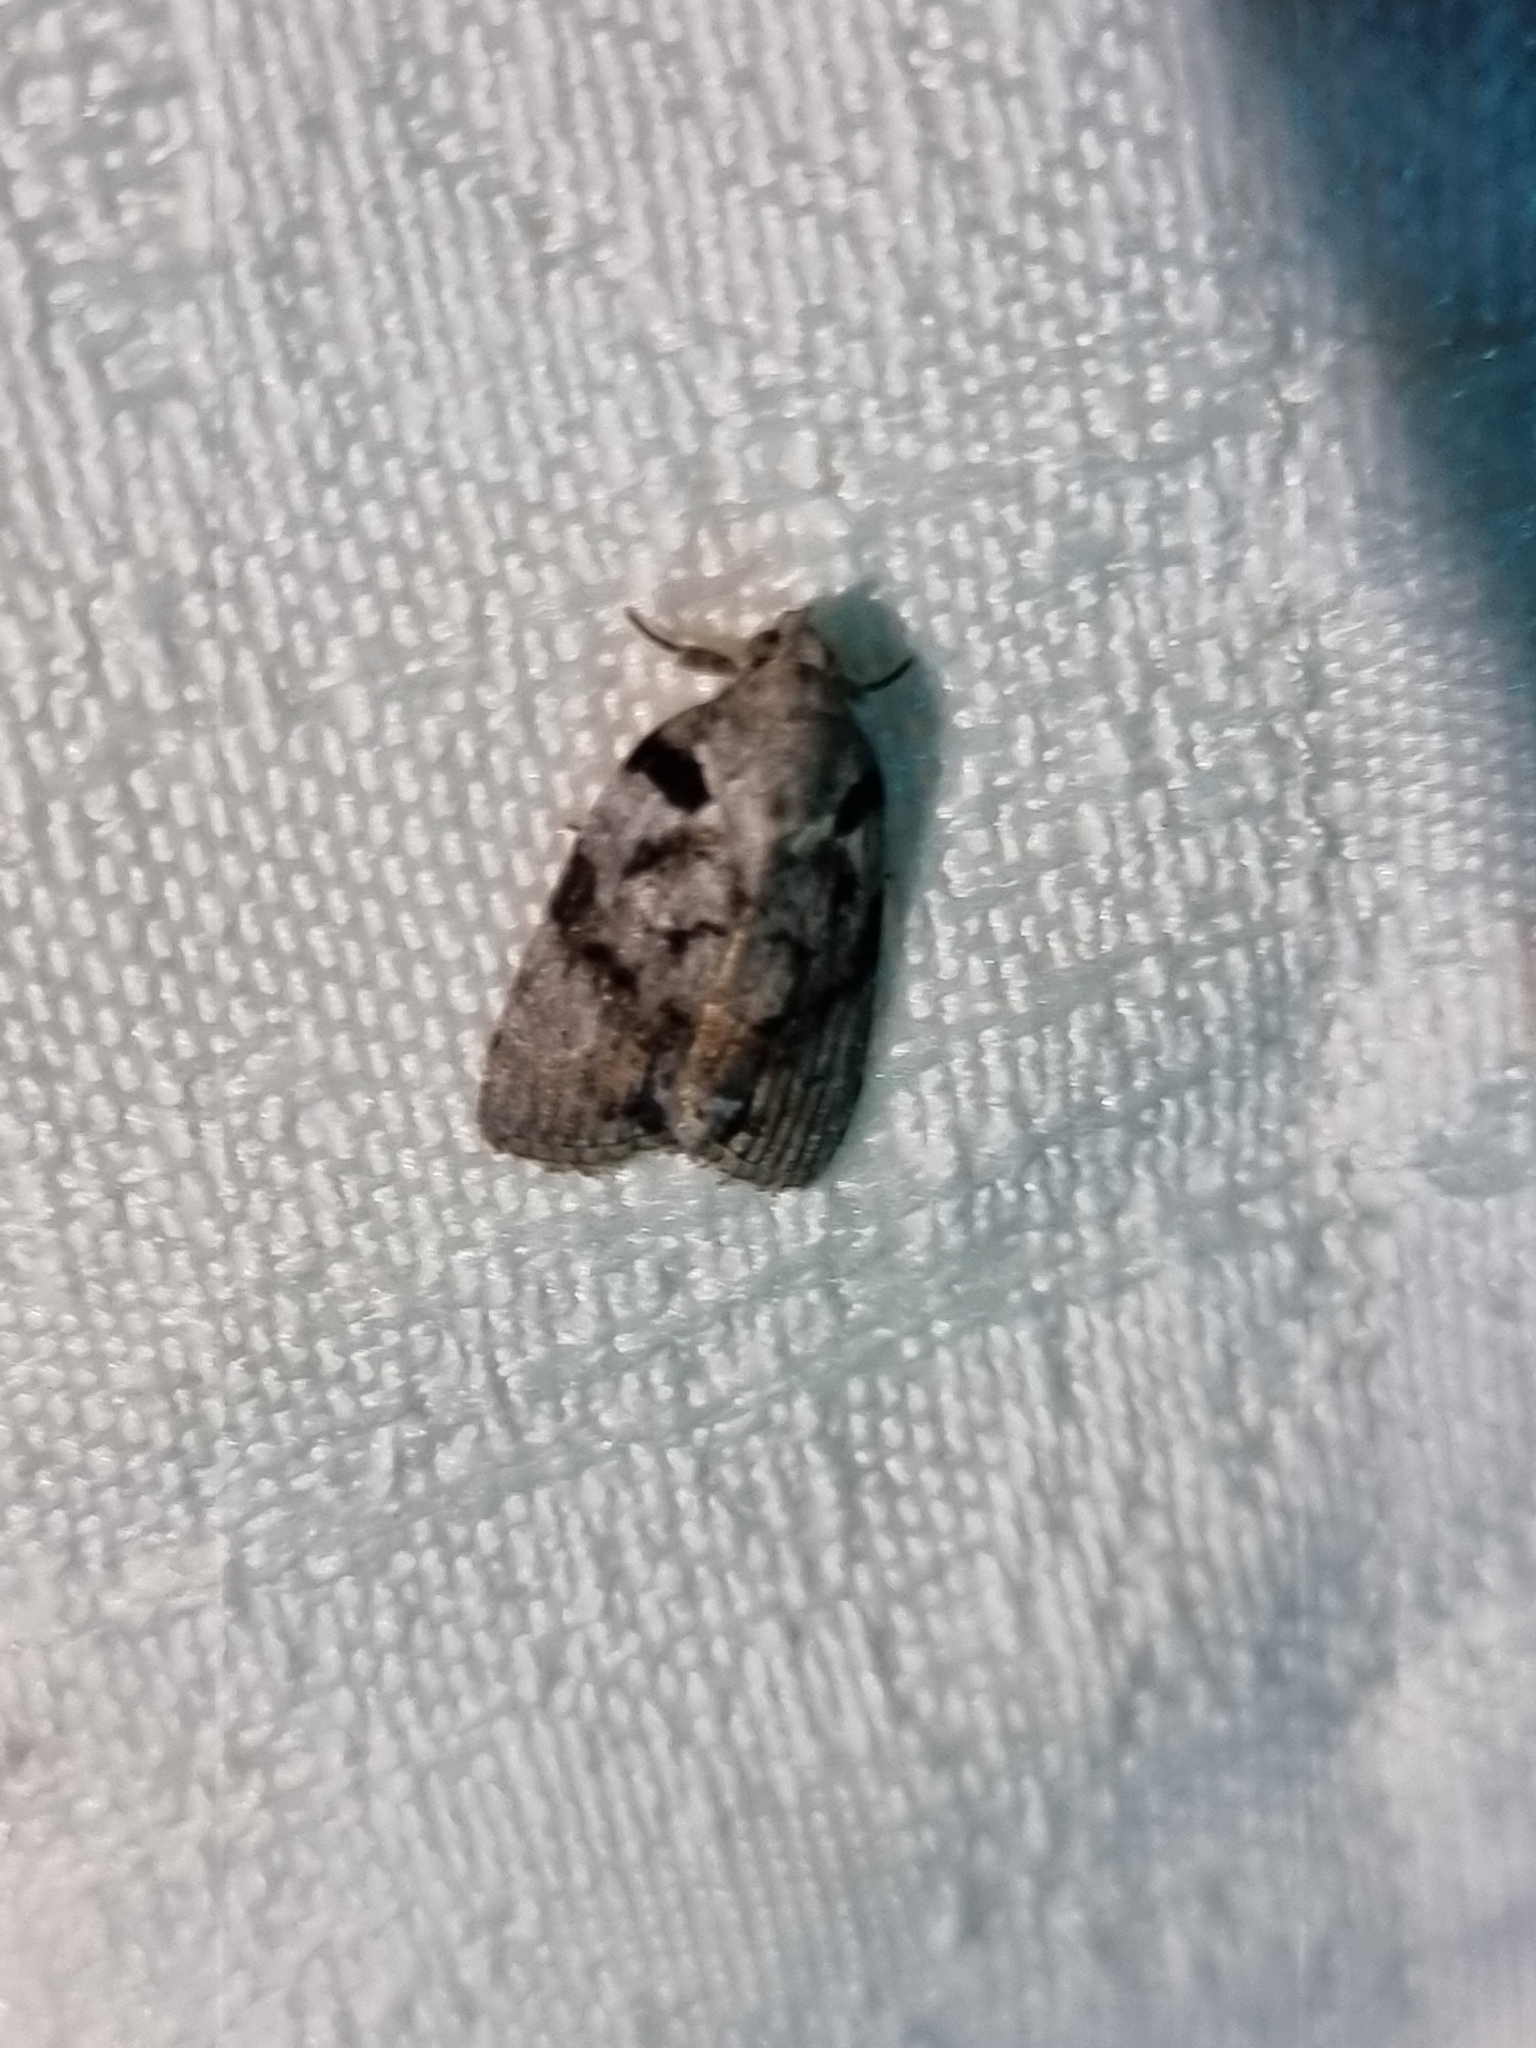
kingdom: Animalia
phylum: Arthropoda
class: Insecta
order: Lepidoptera
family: Nolidae
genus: Etanna
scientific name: Etanna clopaea
